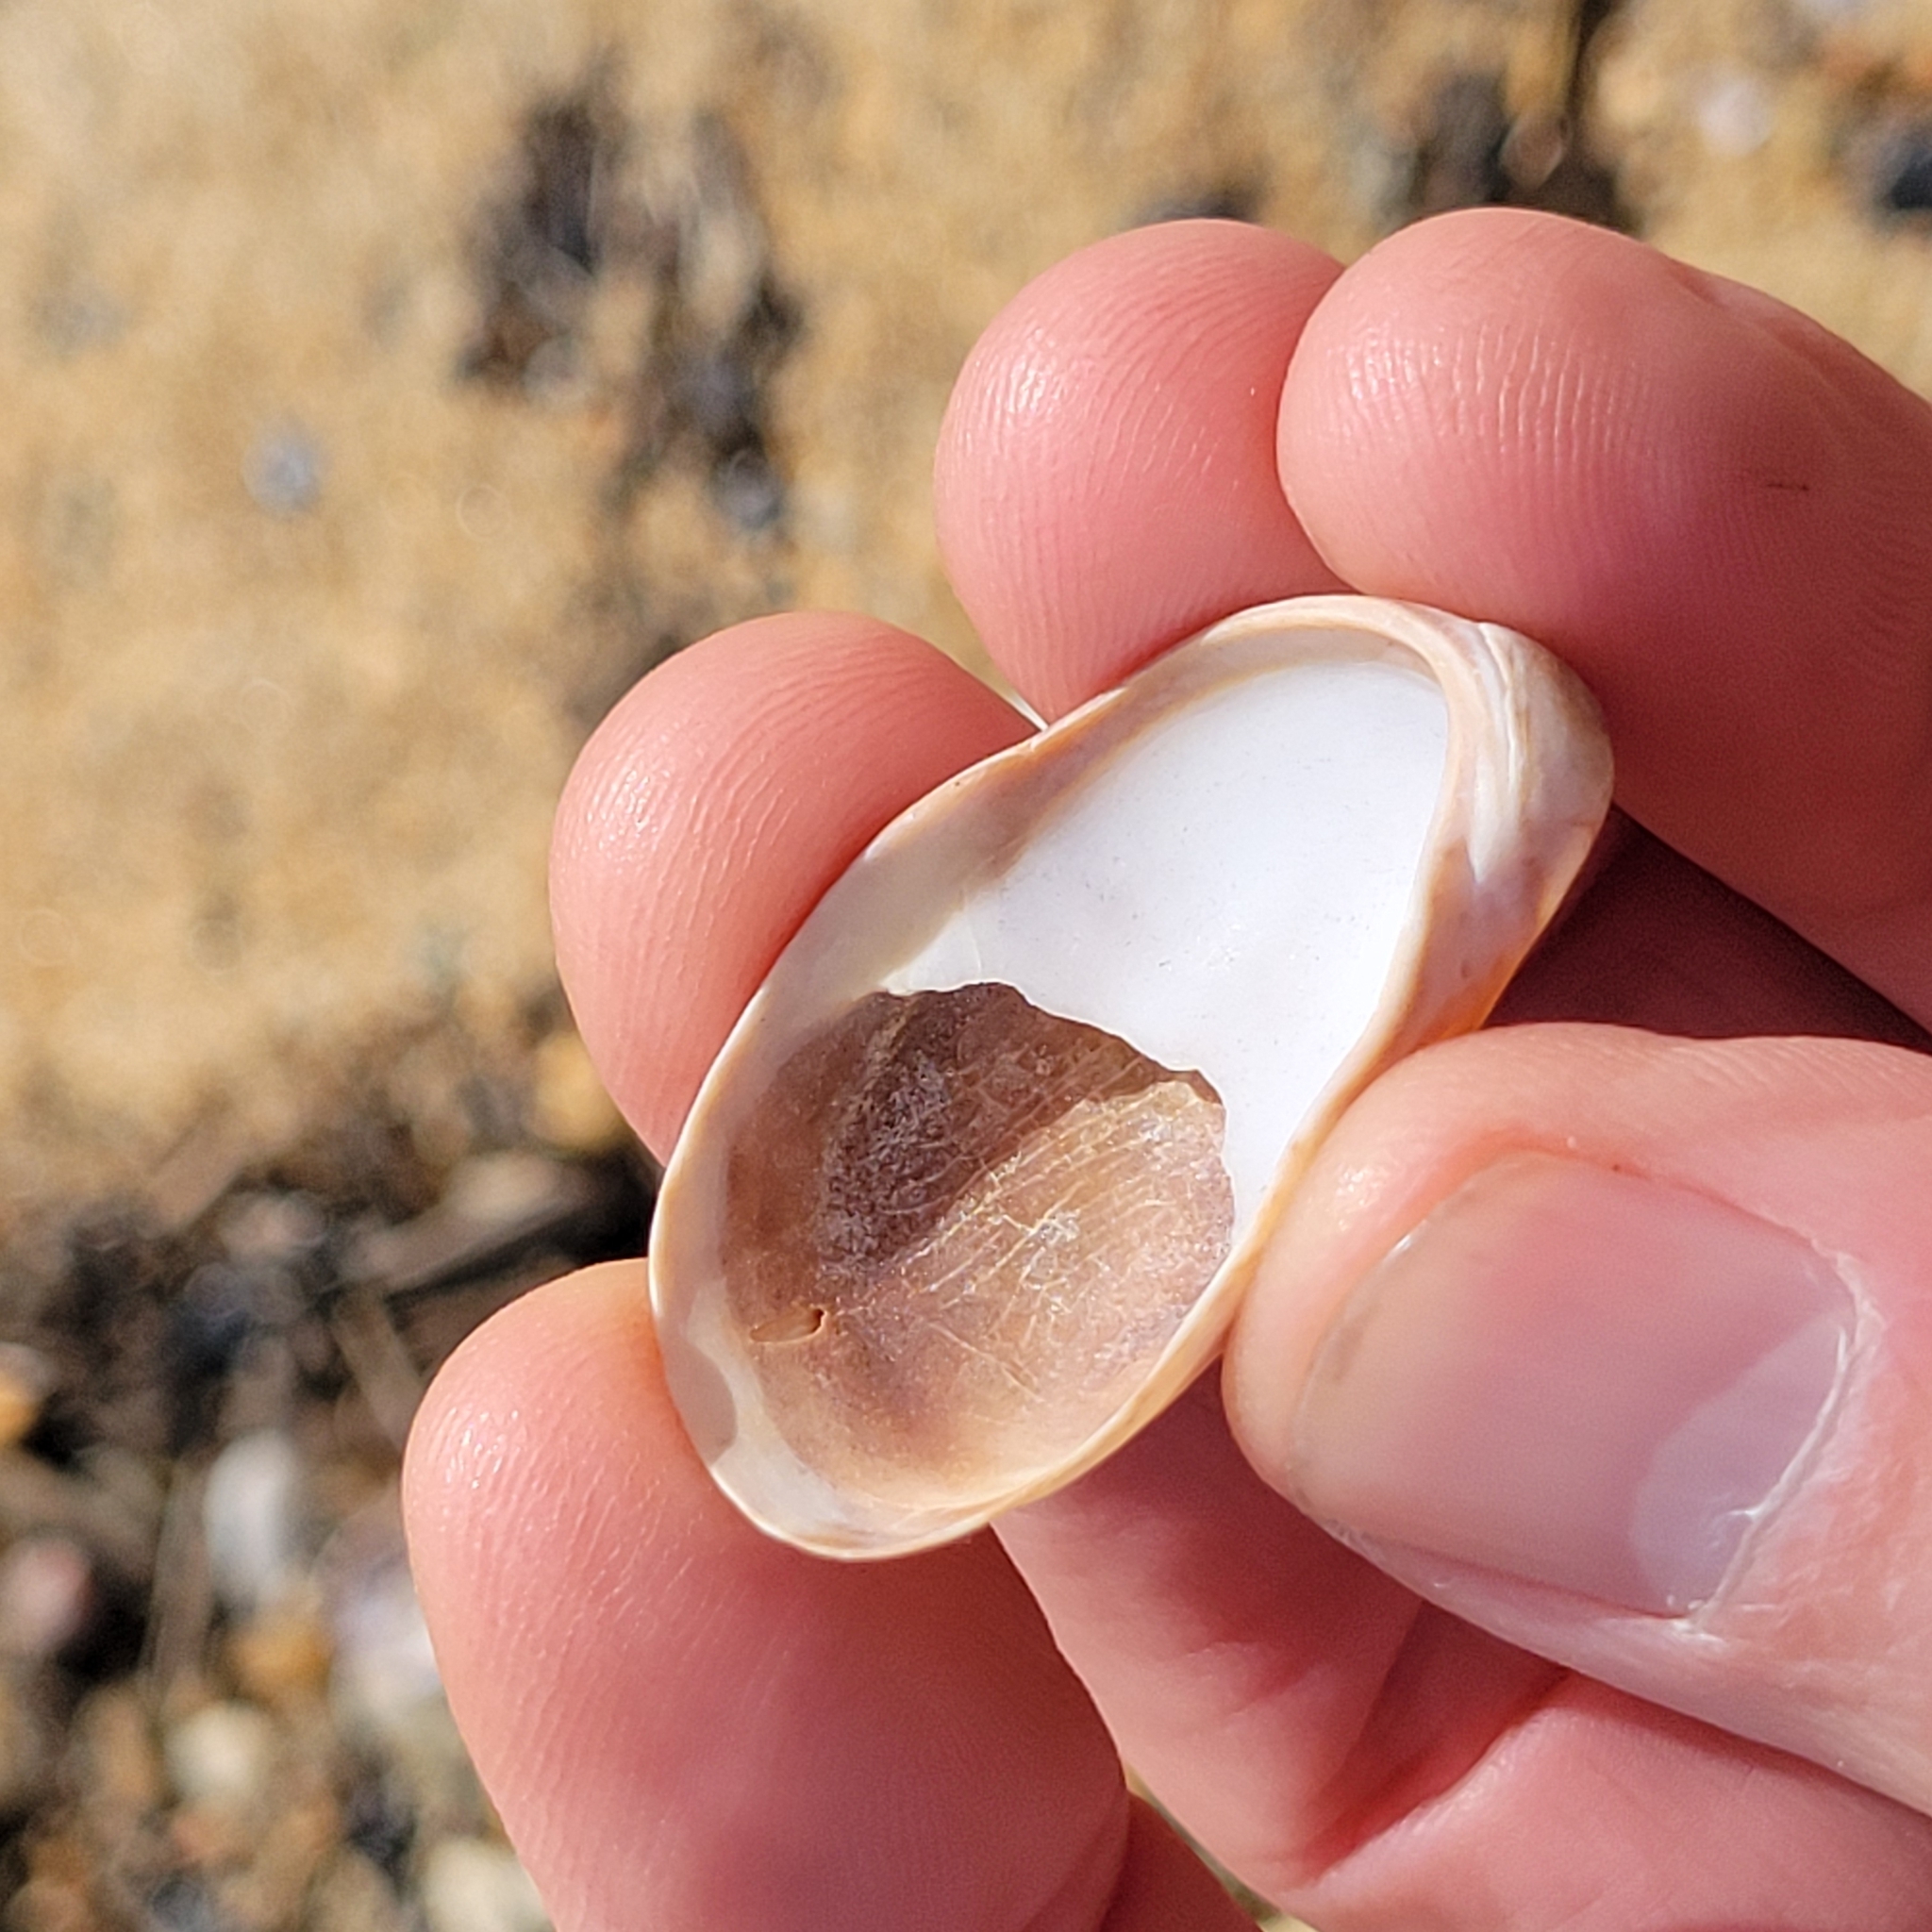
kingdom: Animalia
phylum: Mollusca
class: Gastropoda
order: Littorinimorpha
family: Calyptraeidae
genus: Crepidula
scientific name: Crepidula fornicata
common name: Slipper limpet
